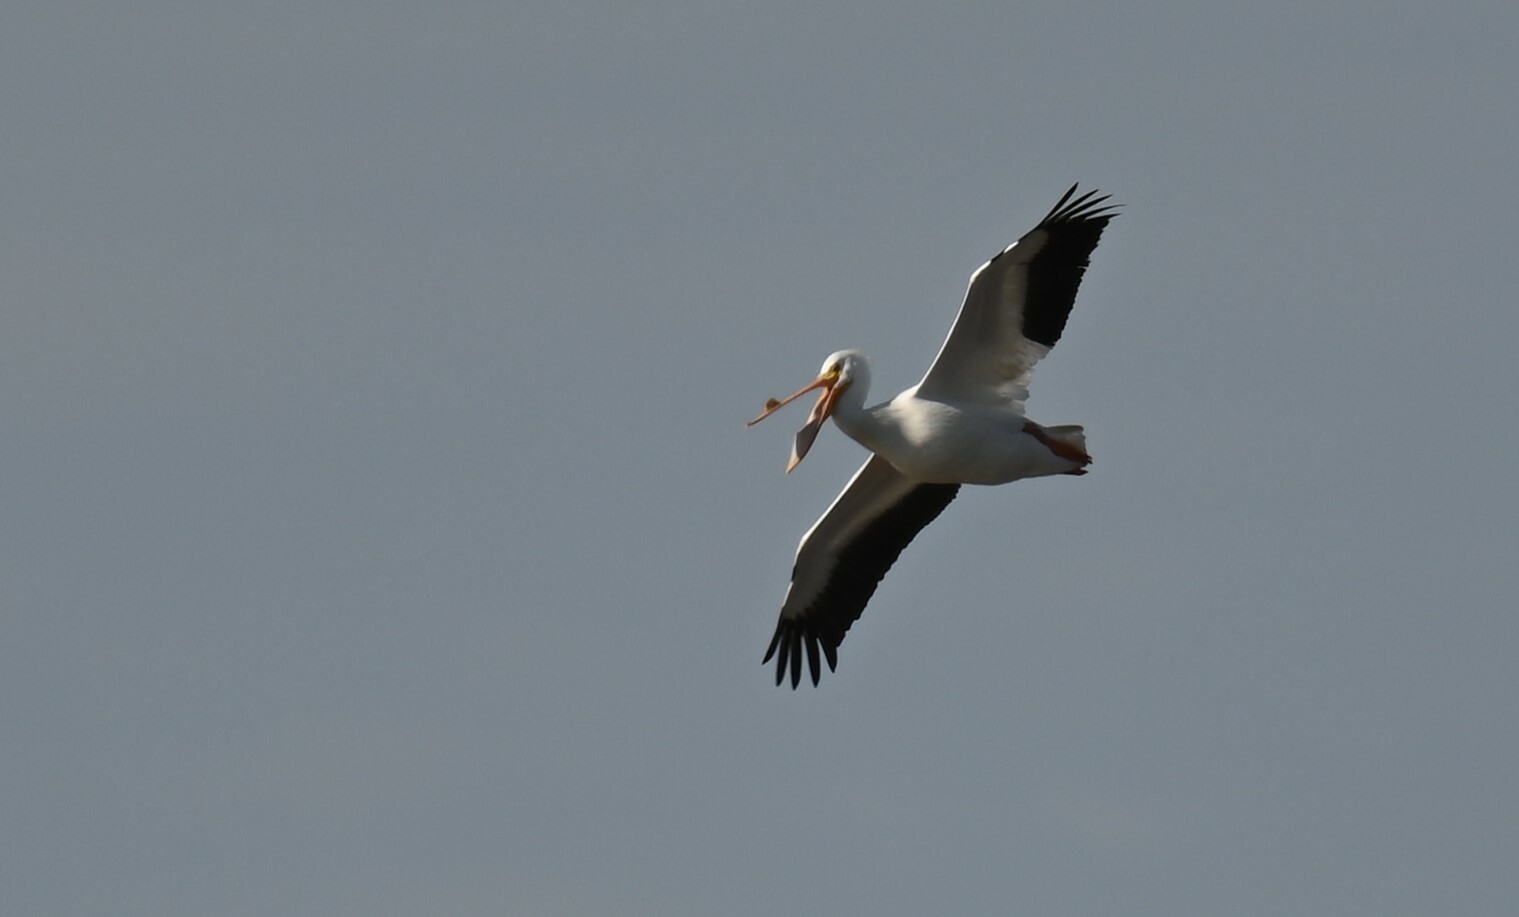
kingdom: Animalia
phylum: Chordata
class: Aves
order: Pelecaniformes
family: Pelecanidae
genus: Pelecanus
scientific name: Pelecanus erythrorhynchos
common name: American white pelican
